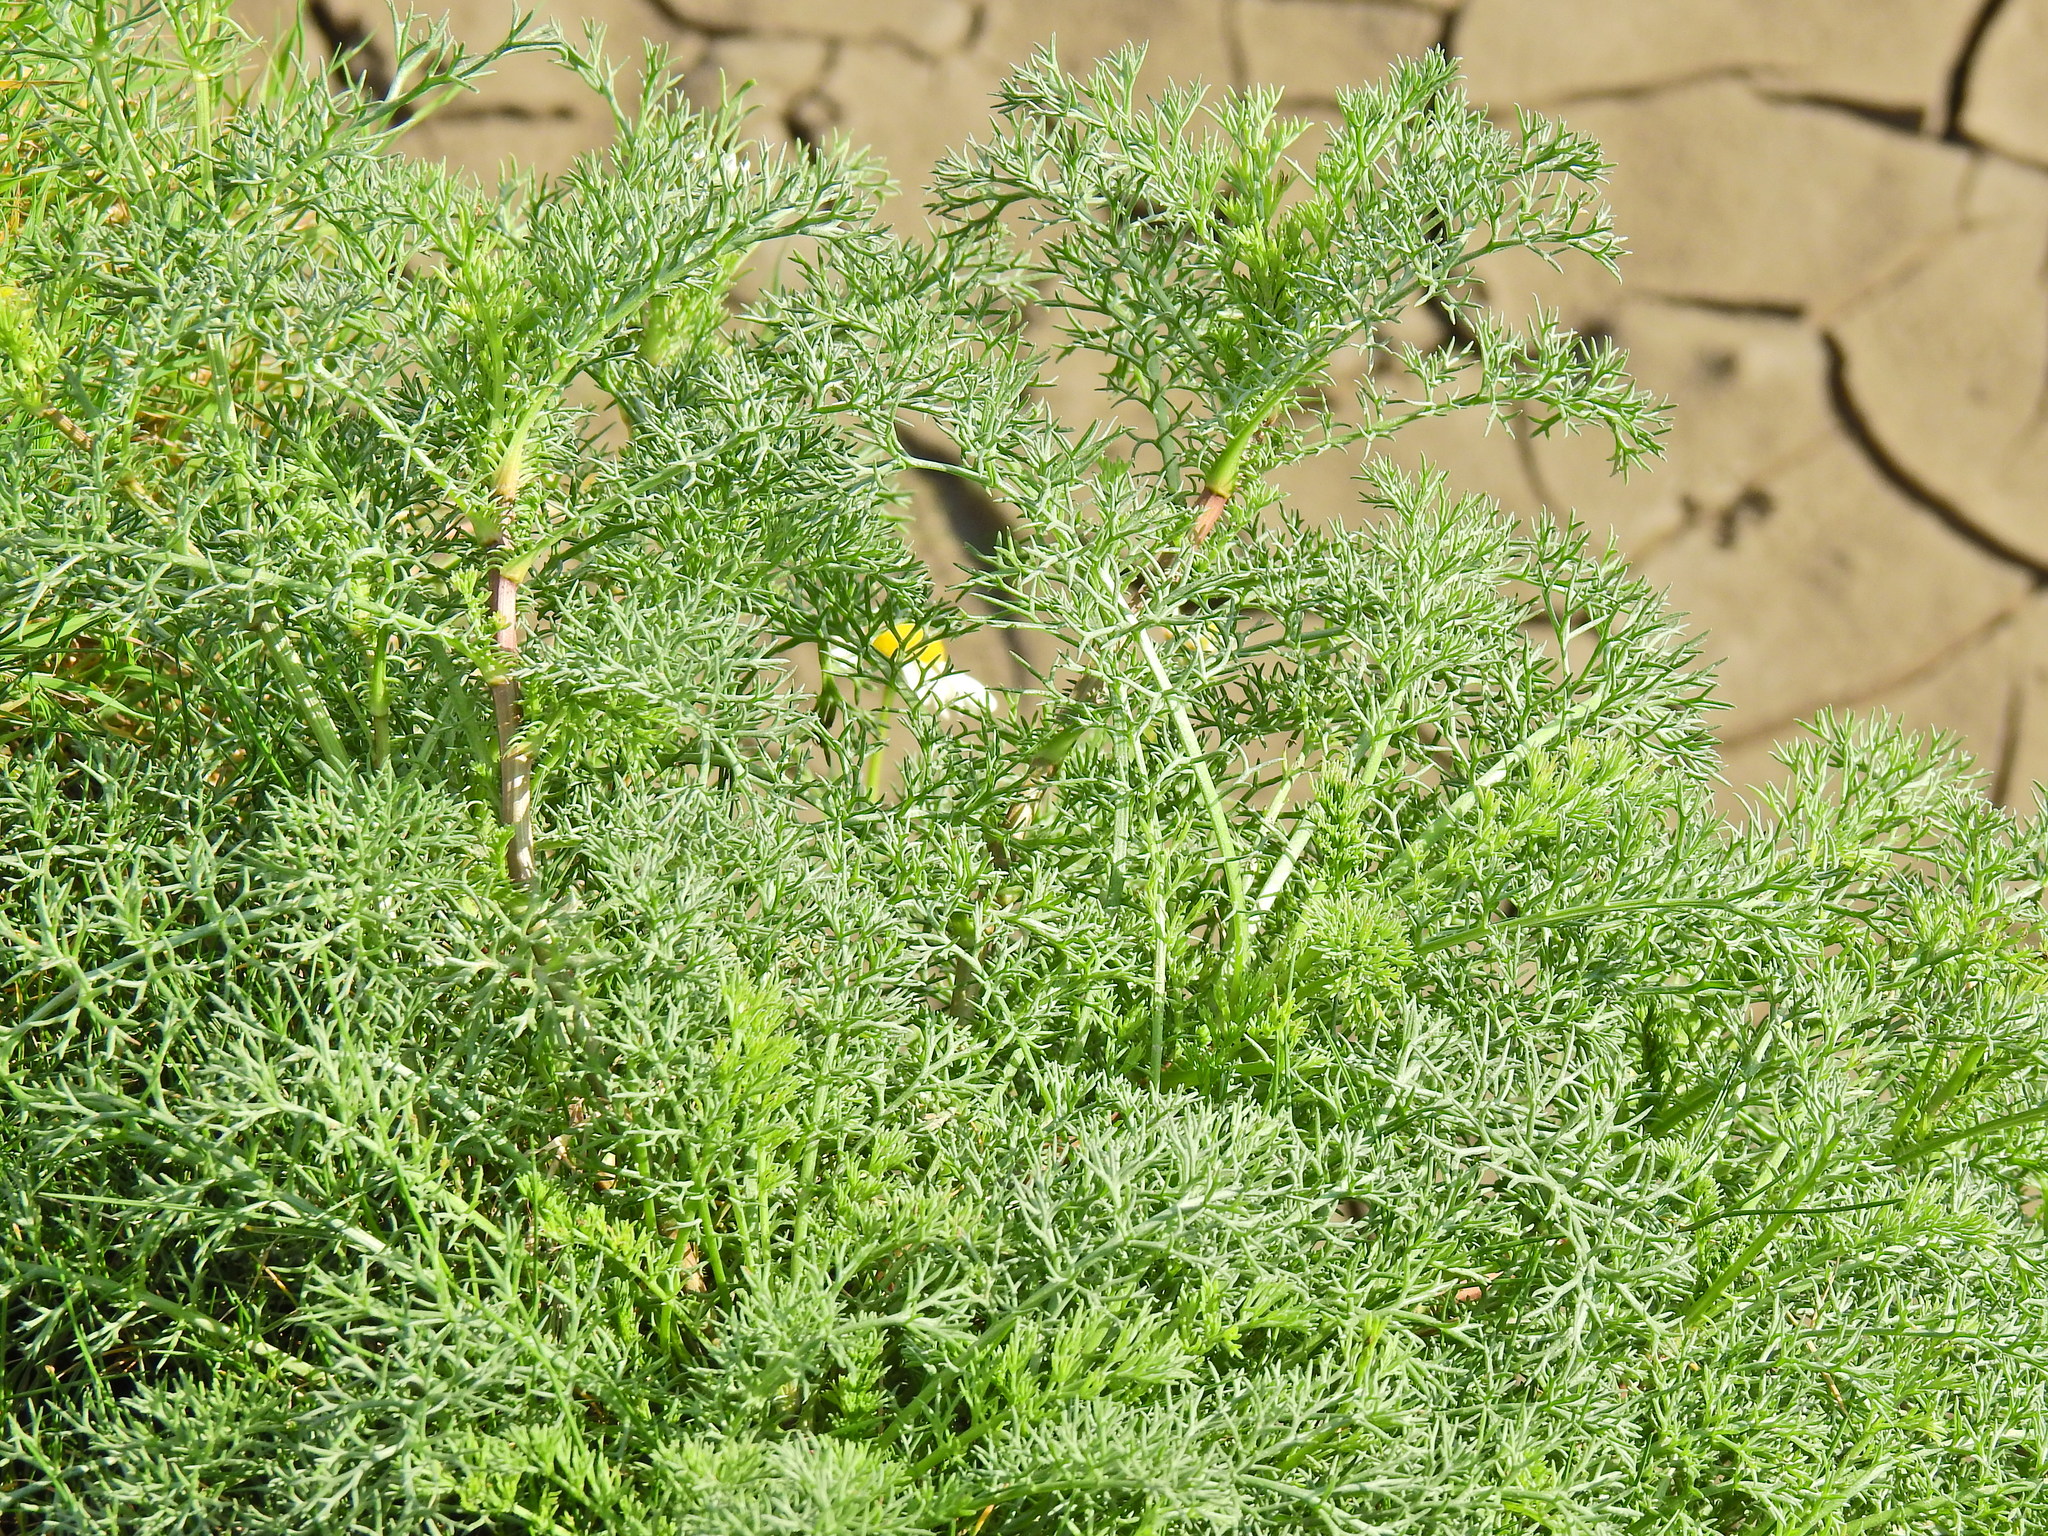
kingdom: Plantae
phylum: Tracheophyta
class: Magnoliopsida
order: Asterales
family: Asteraceae
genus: Tripleurospermum
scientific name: Tripleurospermum maritimum
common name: Sea mayweed
